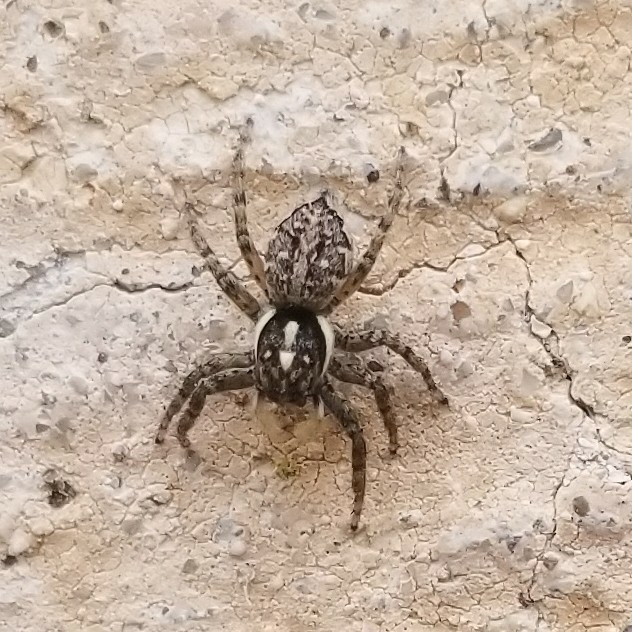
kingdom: Animalia
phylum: Arthropoda
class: Arachnida
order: Araneae
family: Salticidae
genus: Menemerus
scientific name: Menemerus semilimbatus
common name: Jumping spider
